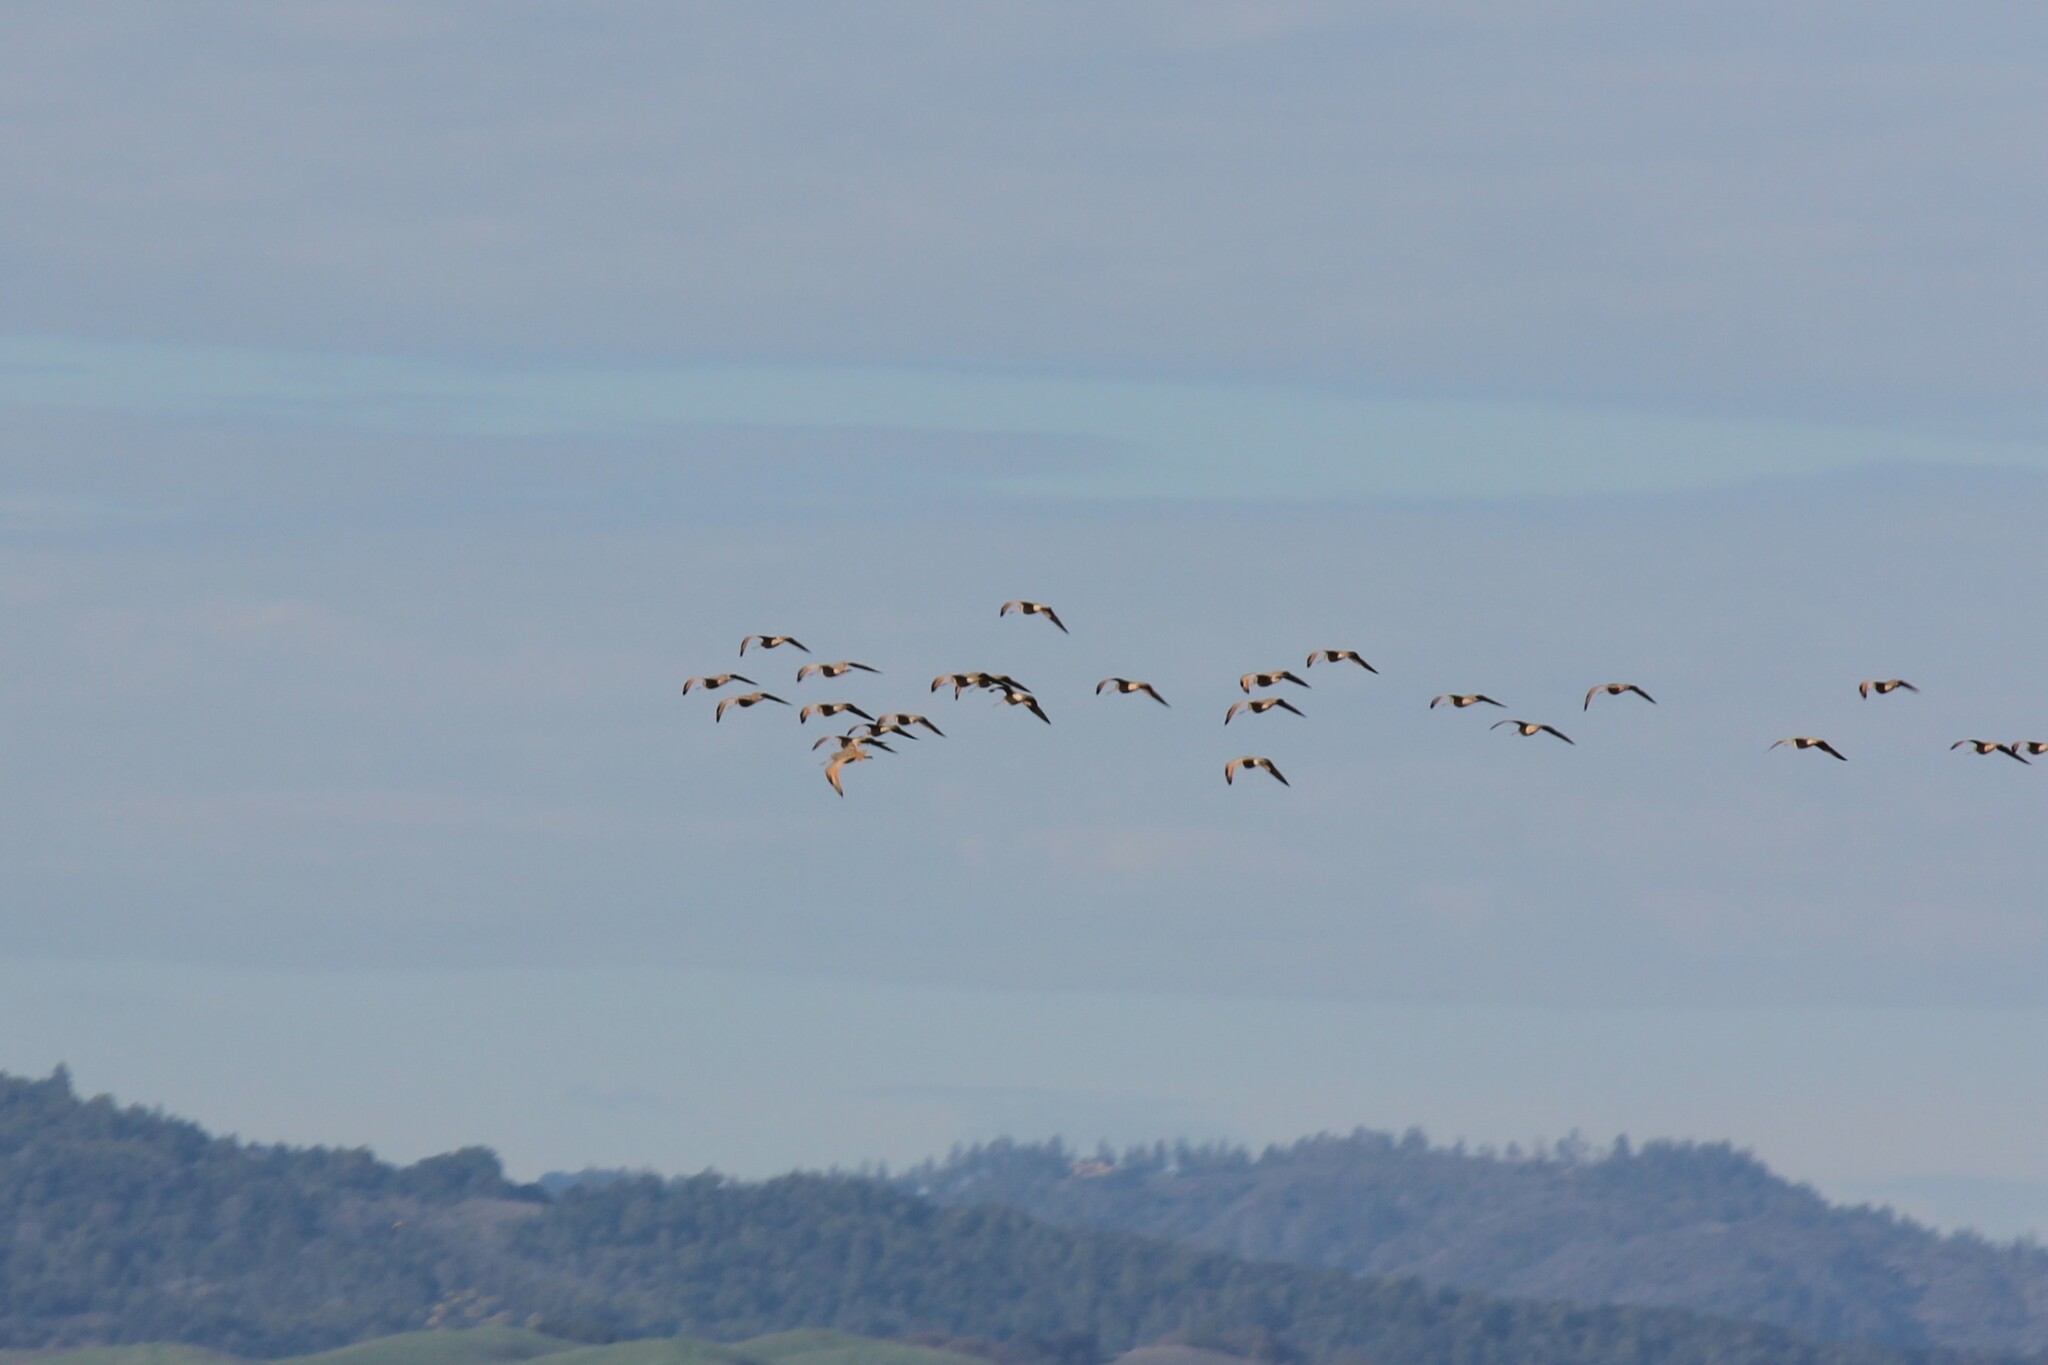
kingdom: Animalia
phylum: Chordata
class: Aves
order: Charadriiformes
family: Scolopacidae
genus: Limosa
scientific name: Limosa fedoa
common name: Marbled godwit
